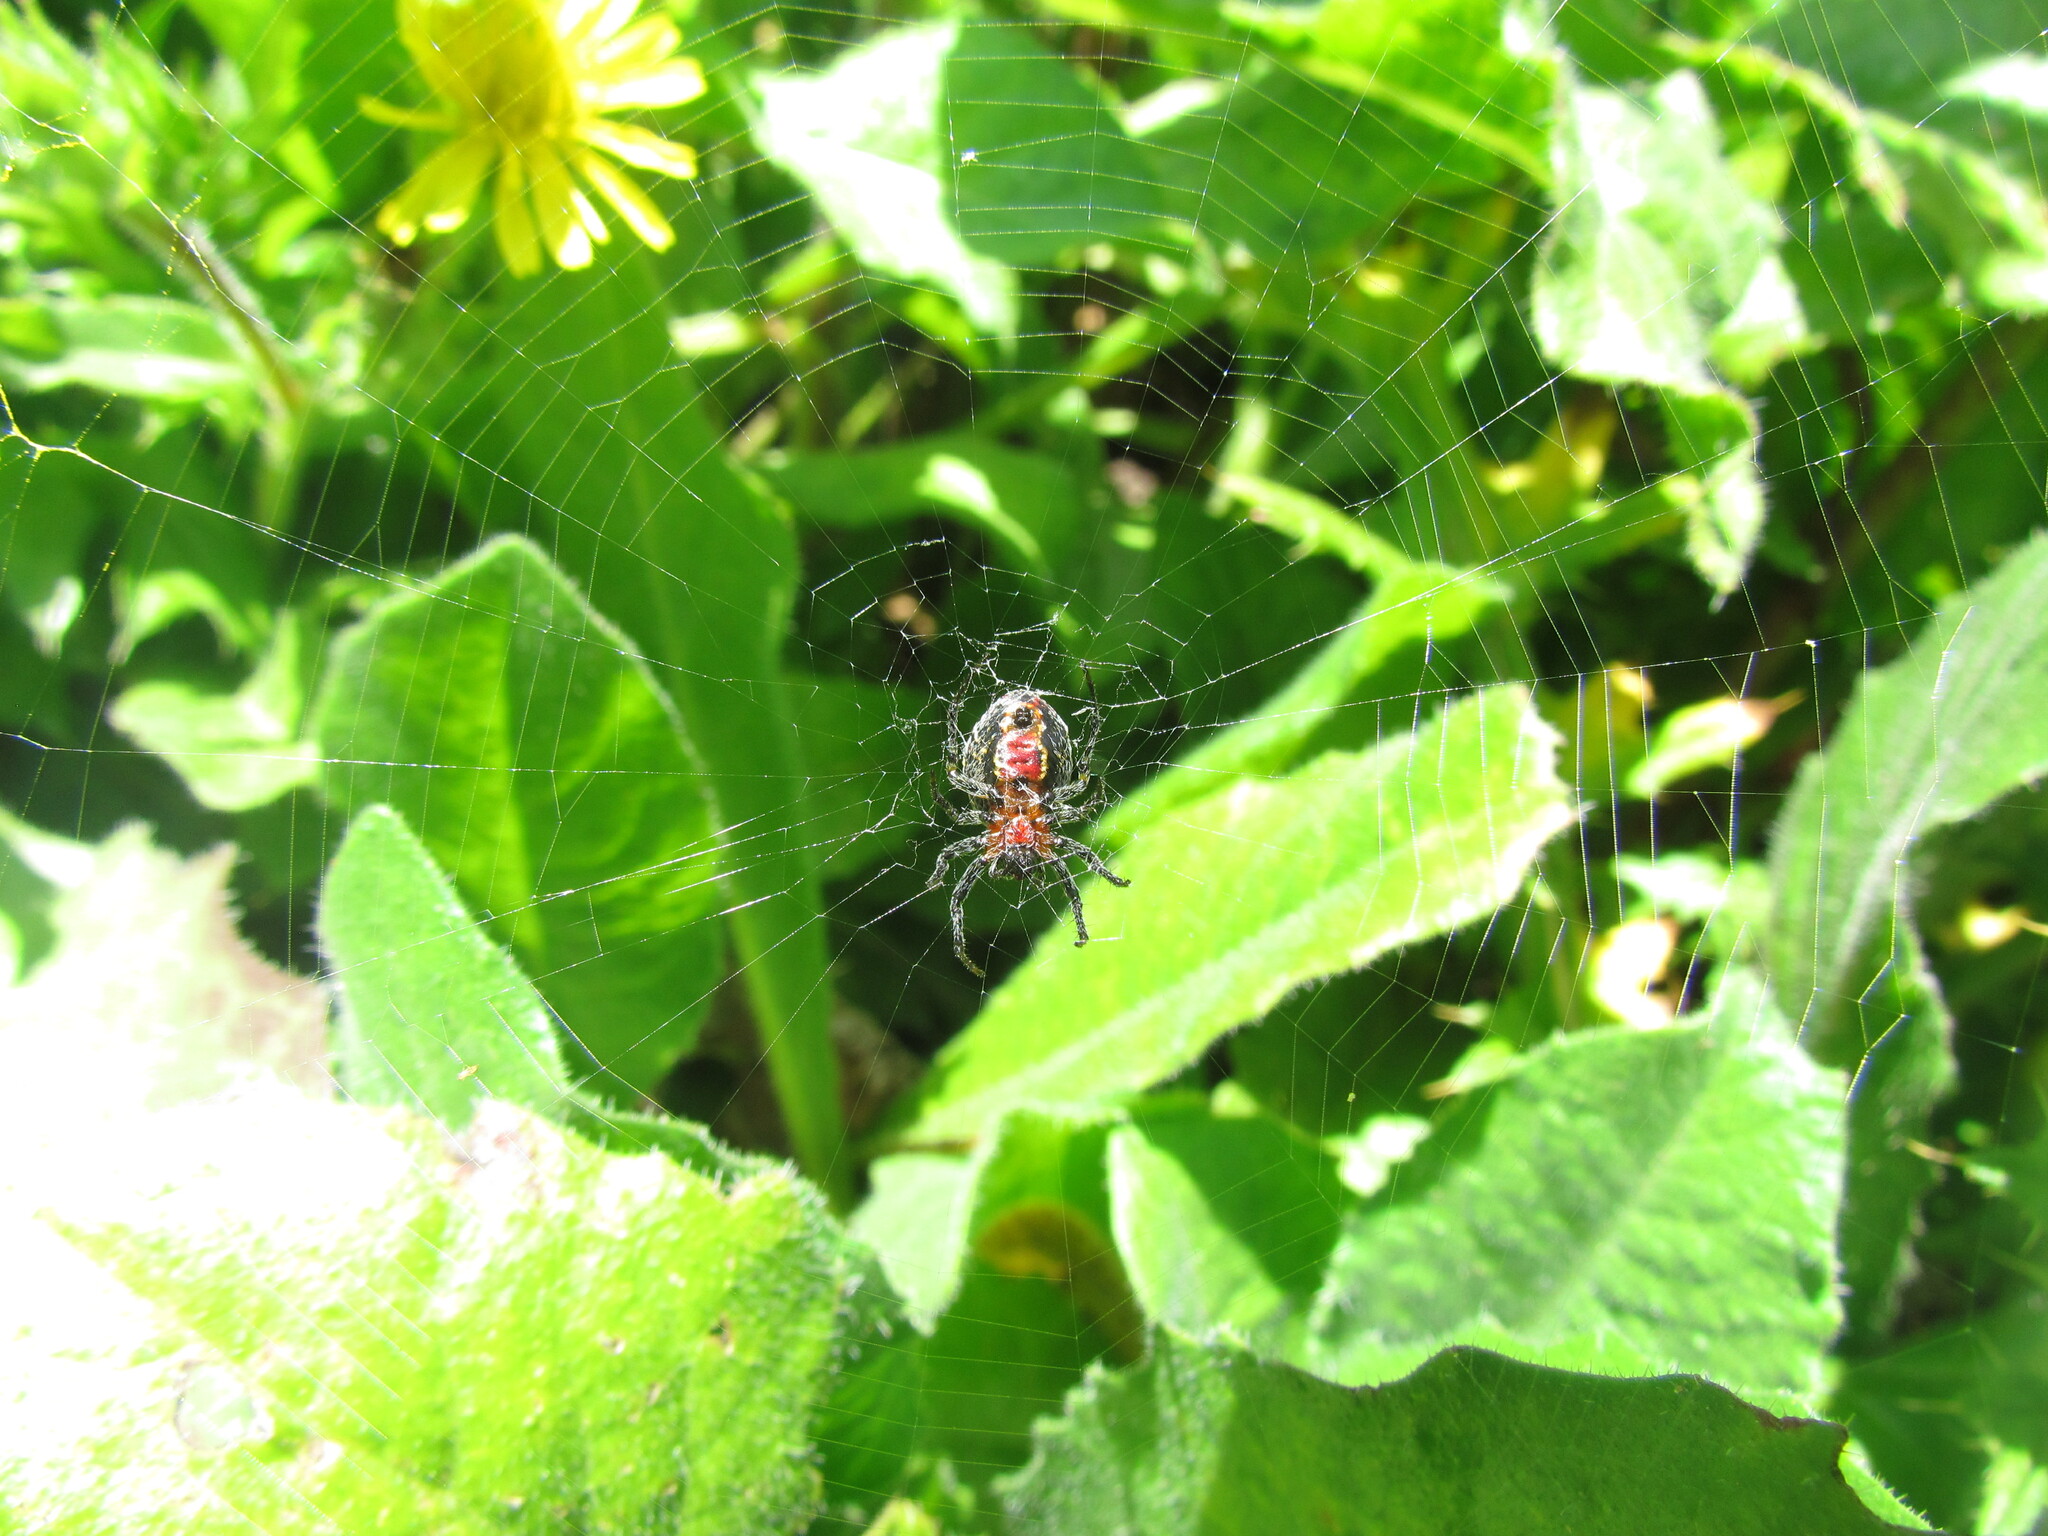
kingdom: Animalia
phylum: Arthropoda
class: Arachnida
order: Araneae
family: Araneidae
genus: Alpaida
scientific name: Alpaida versicolor
